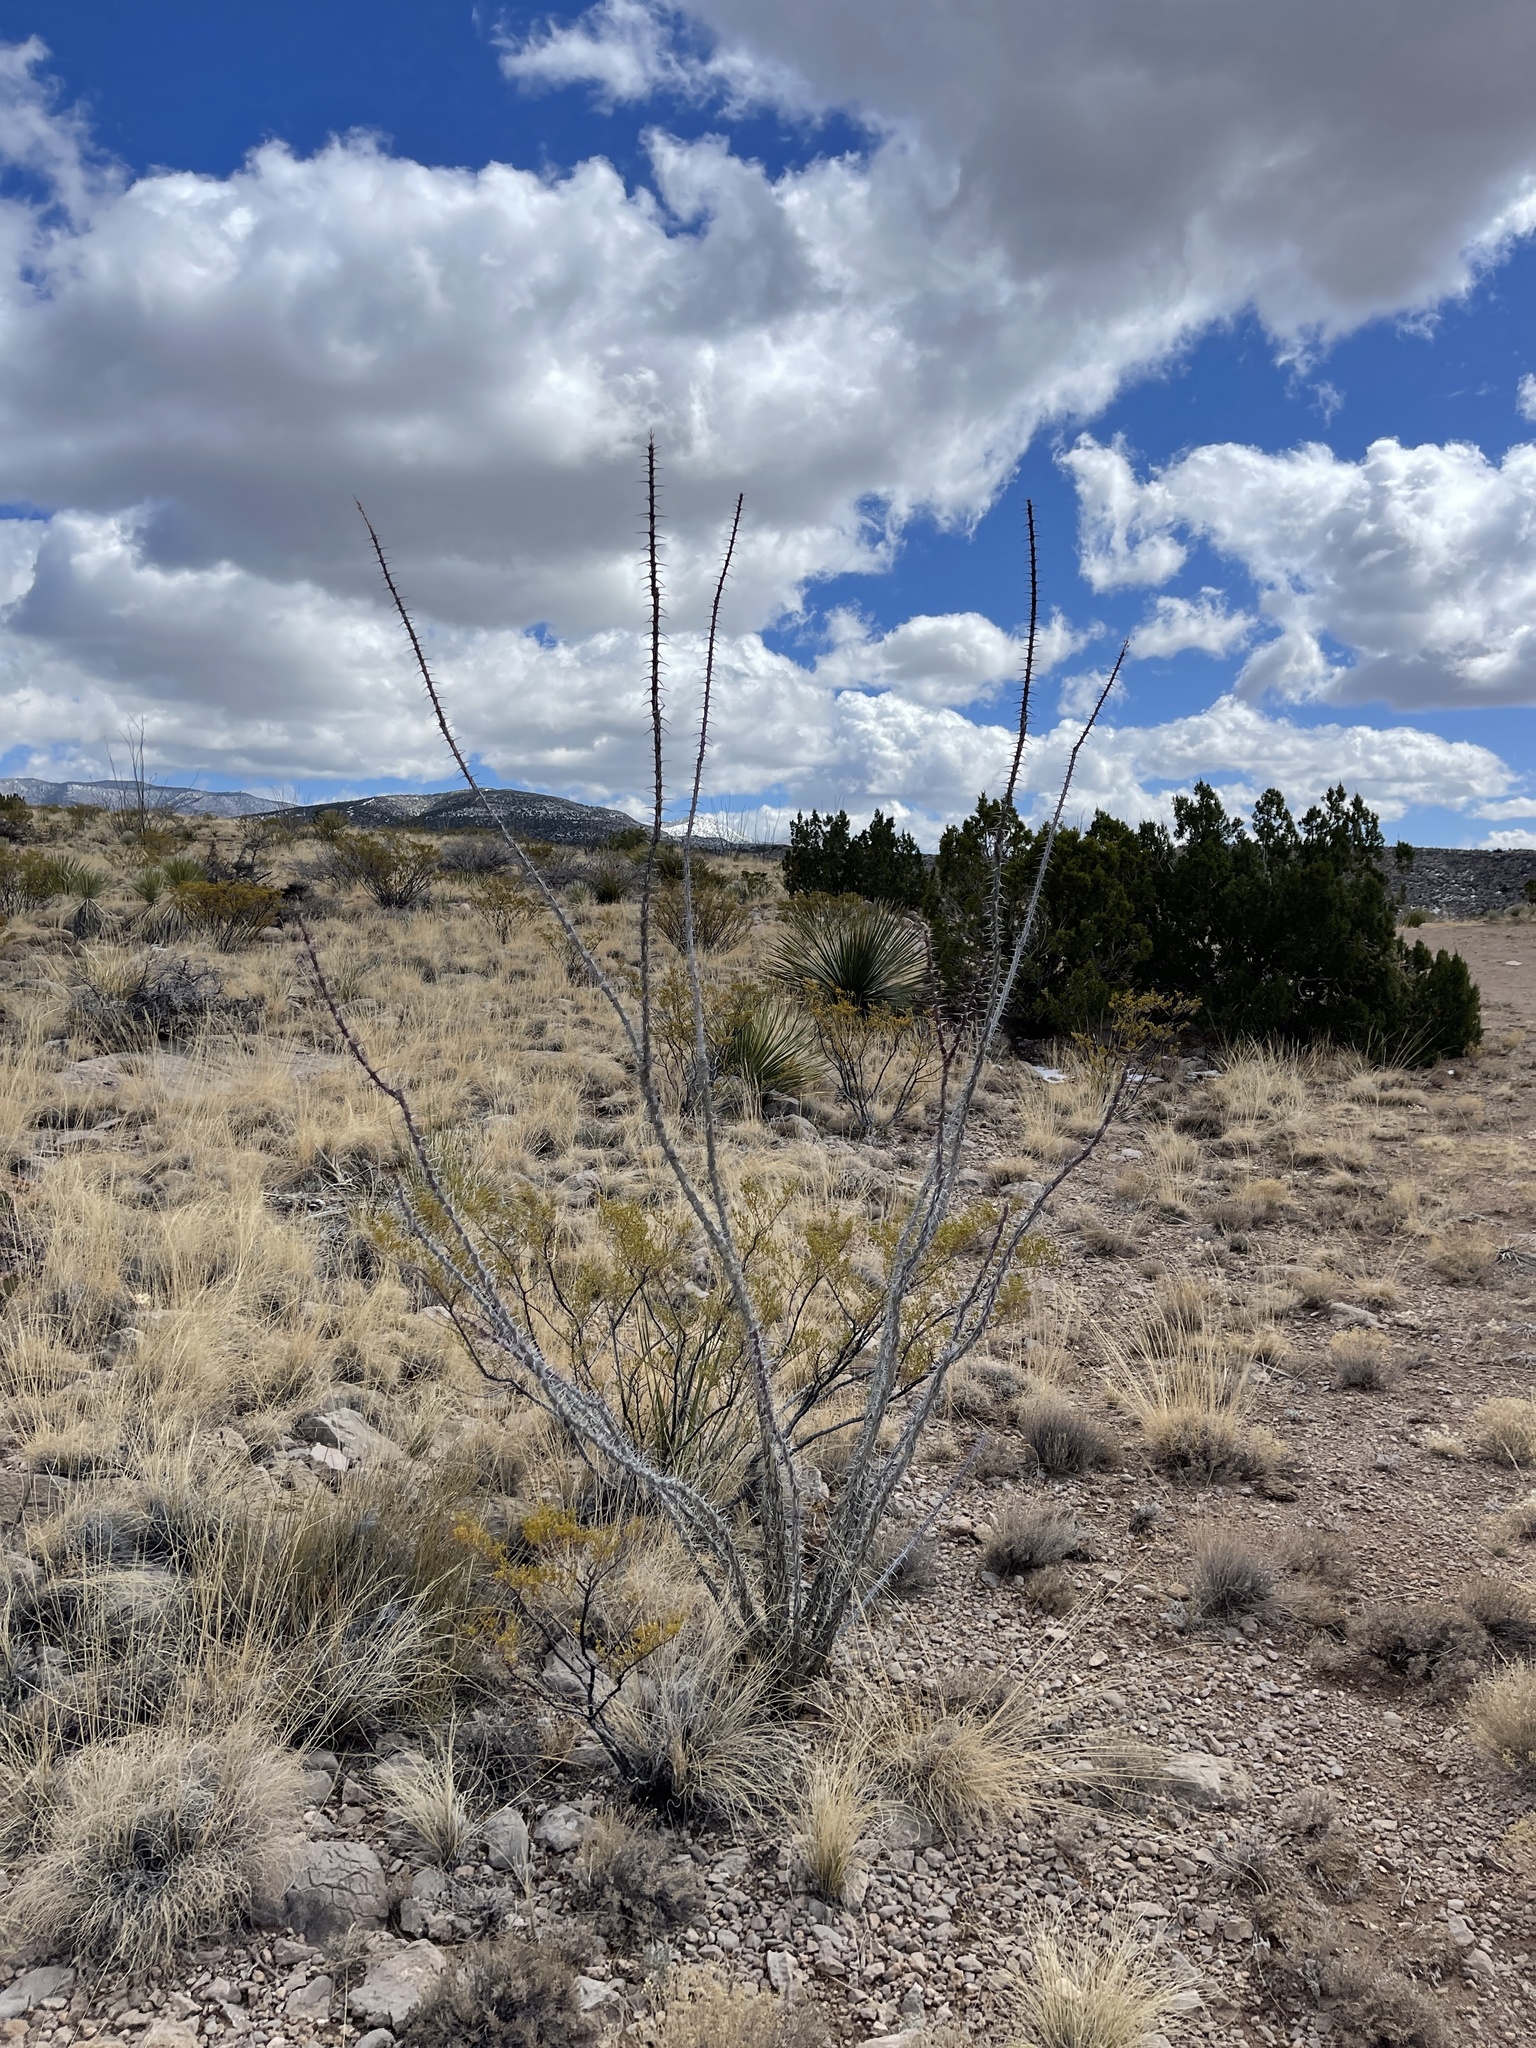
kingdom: Plantae
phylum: Tracheophyta
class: Magnoliopsida
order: Ericales
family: Fouquieriaceae
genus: Fouquieria
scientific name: Fouquieria splendens
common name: Vine-cactus
